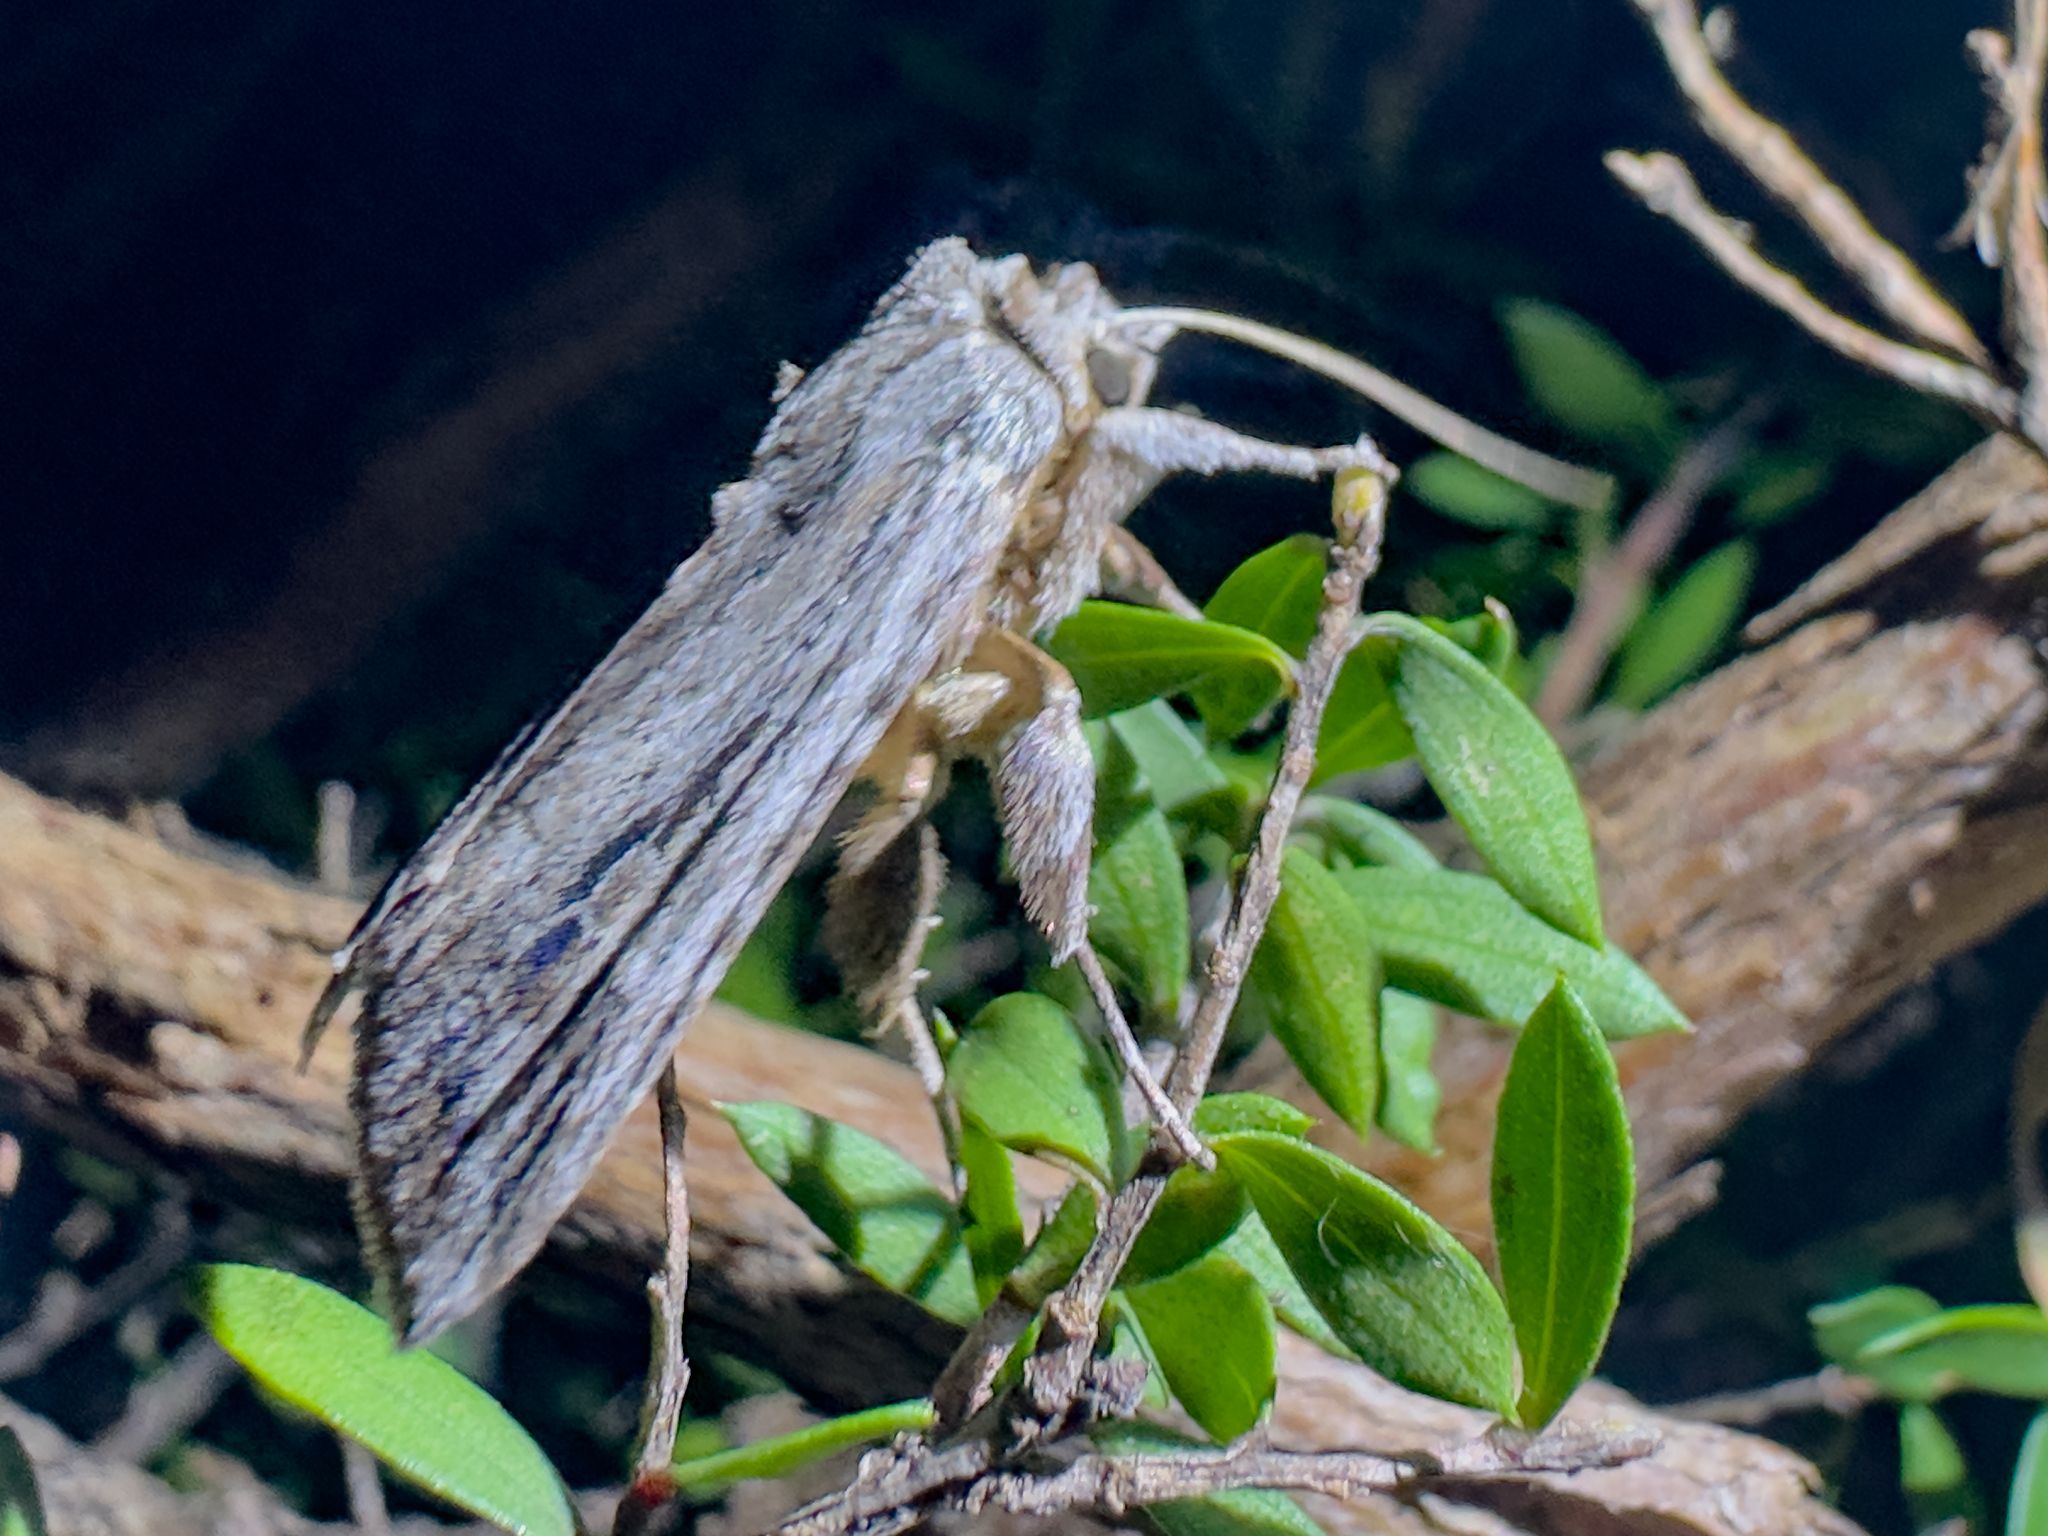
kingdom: Animalia
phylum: Arthropoda
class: Insecta
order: Lepidoptera
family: Noctuidae
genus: Physetica
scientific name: Physetica sequens
